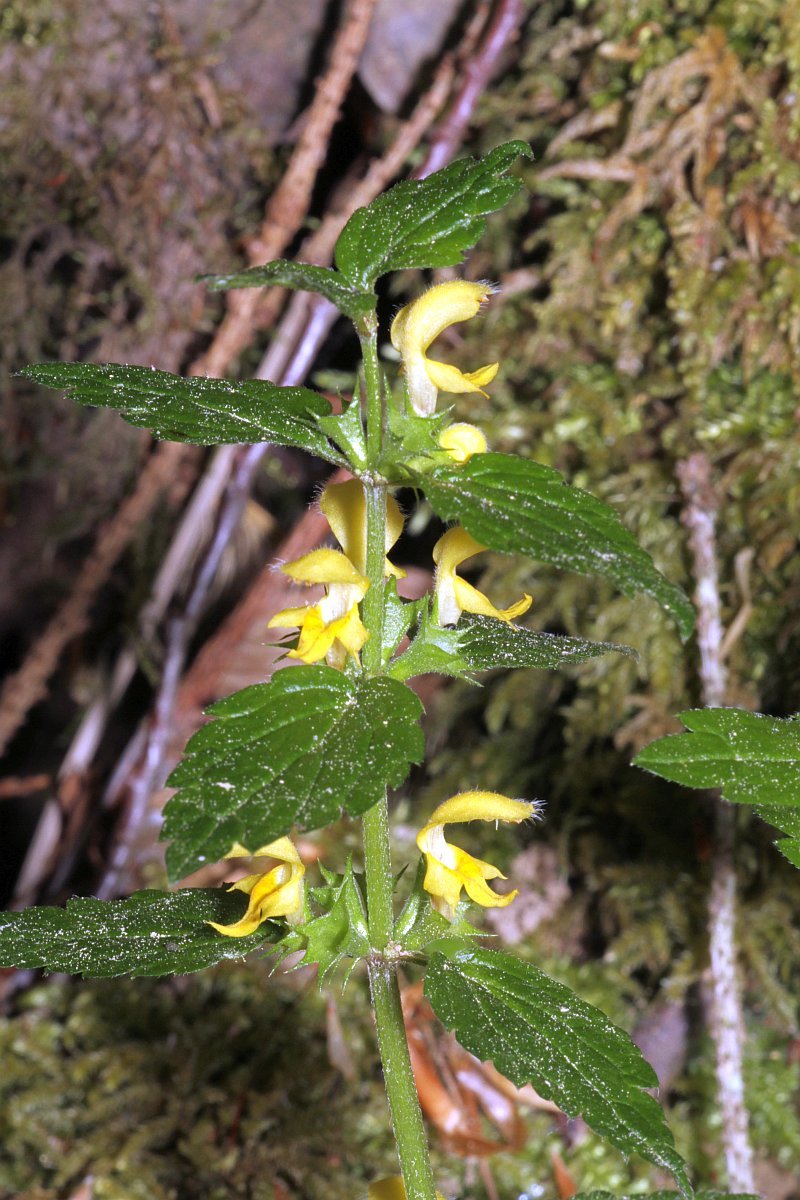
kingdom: Plantae
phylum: Tracheophyta
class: Magnoliopsida
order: Lamiales
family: Lamiaceae
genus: Lamium
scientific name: Lamium galeobdolon
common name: Yellow archangel
